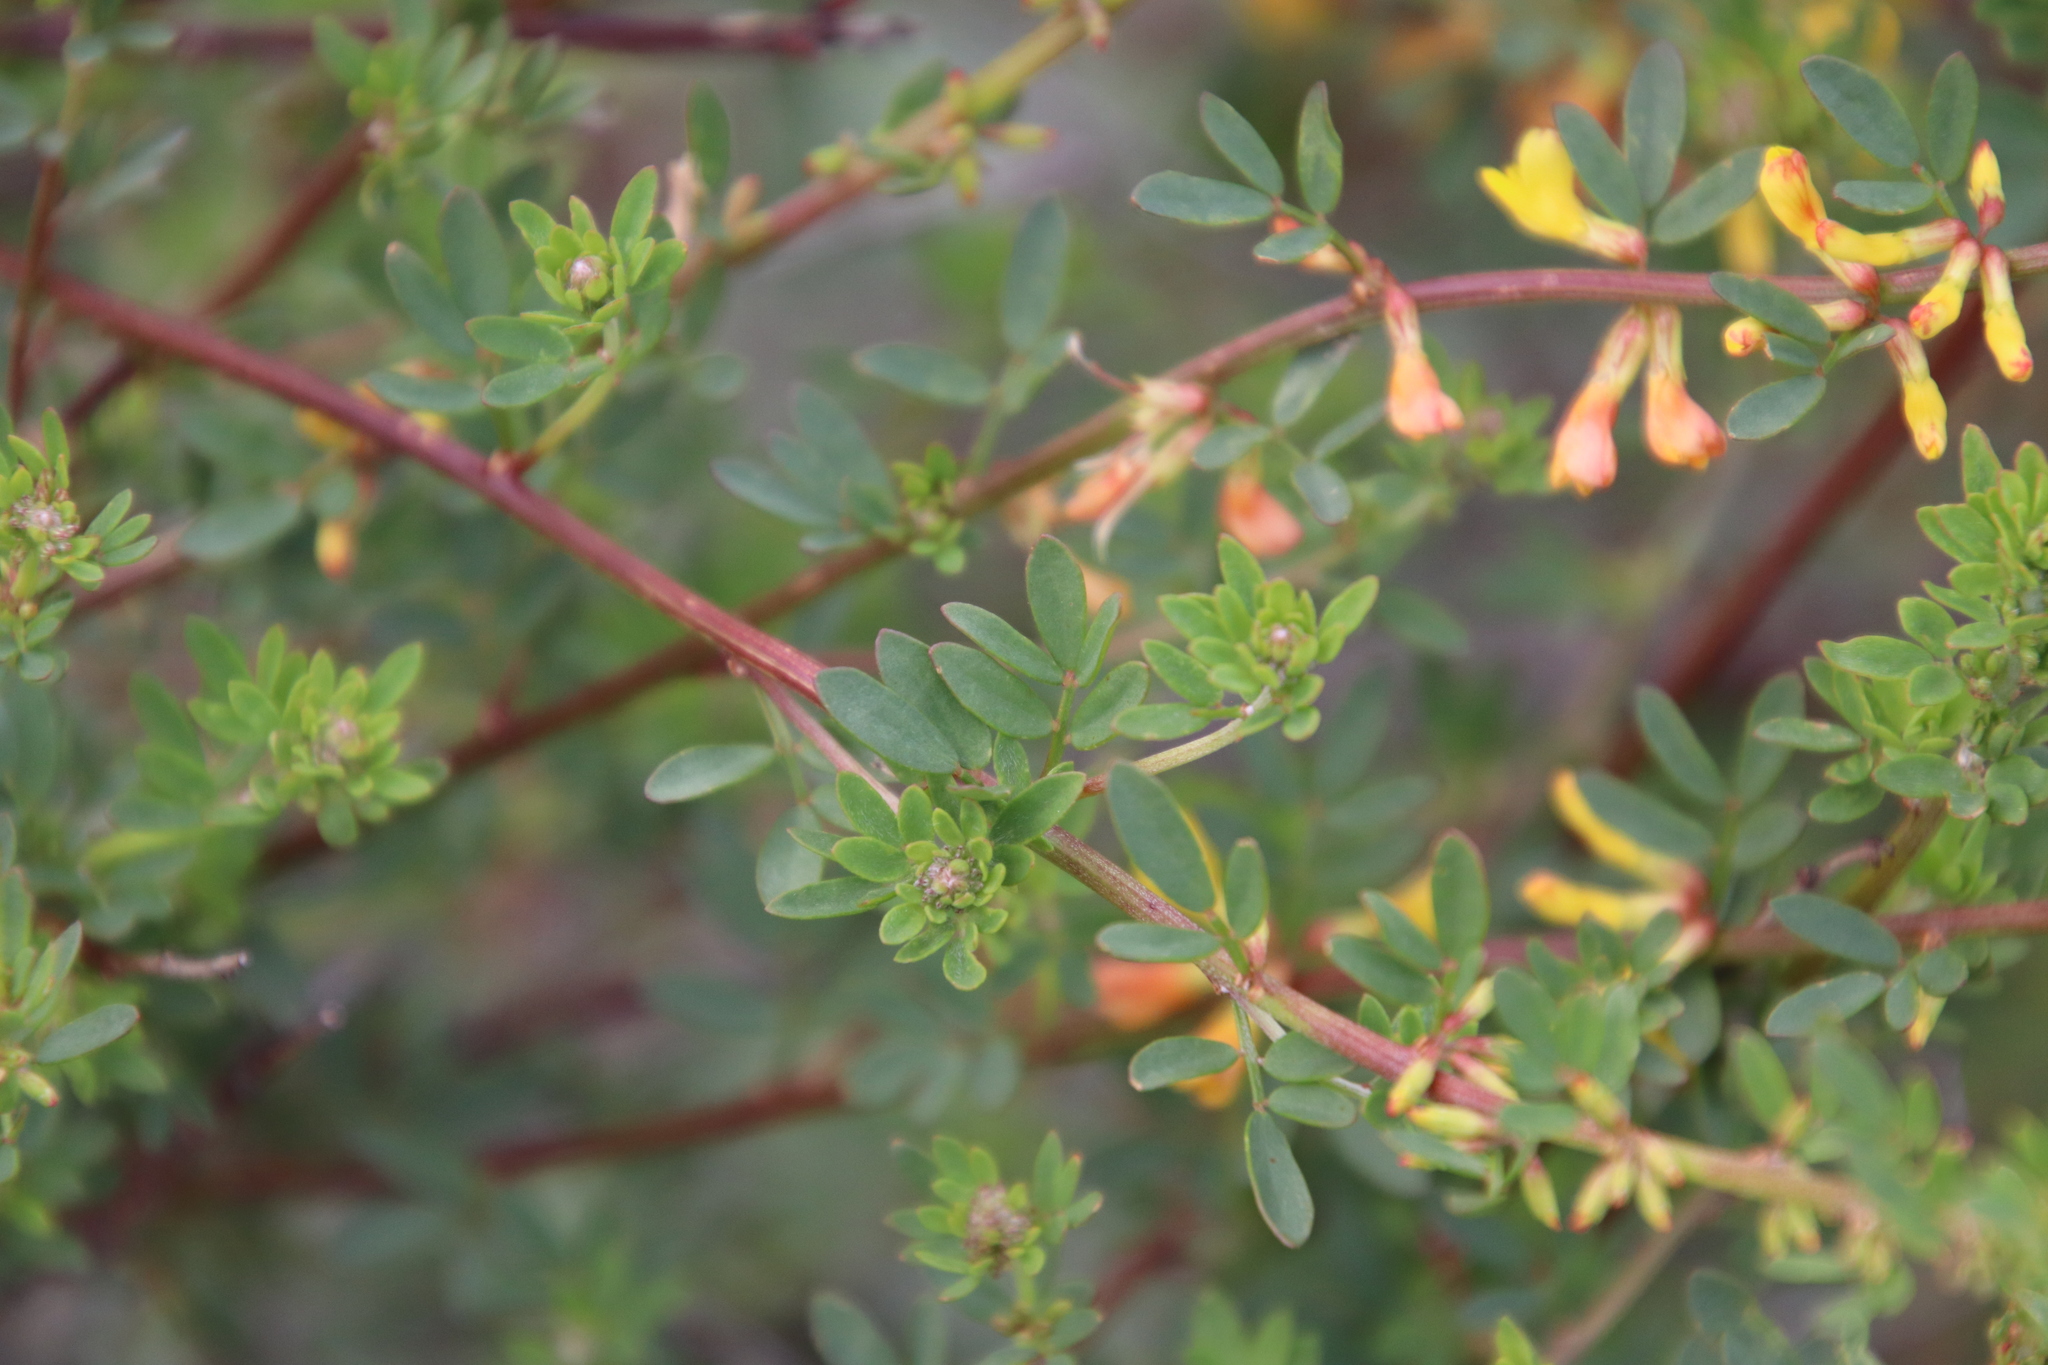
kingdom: Plantae
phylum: Tracheophyta
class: Magnoliopsida
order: Fabales
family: Fabaceae
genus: Acmispon
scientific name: Acmispon glaber
